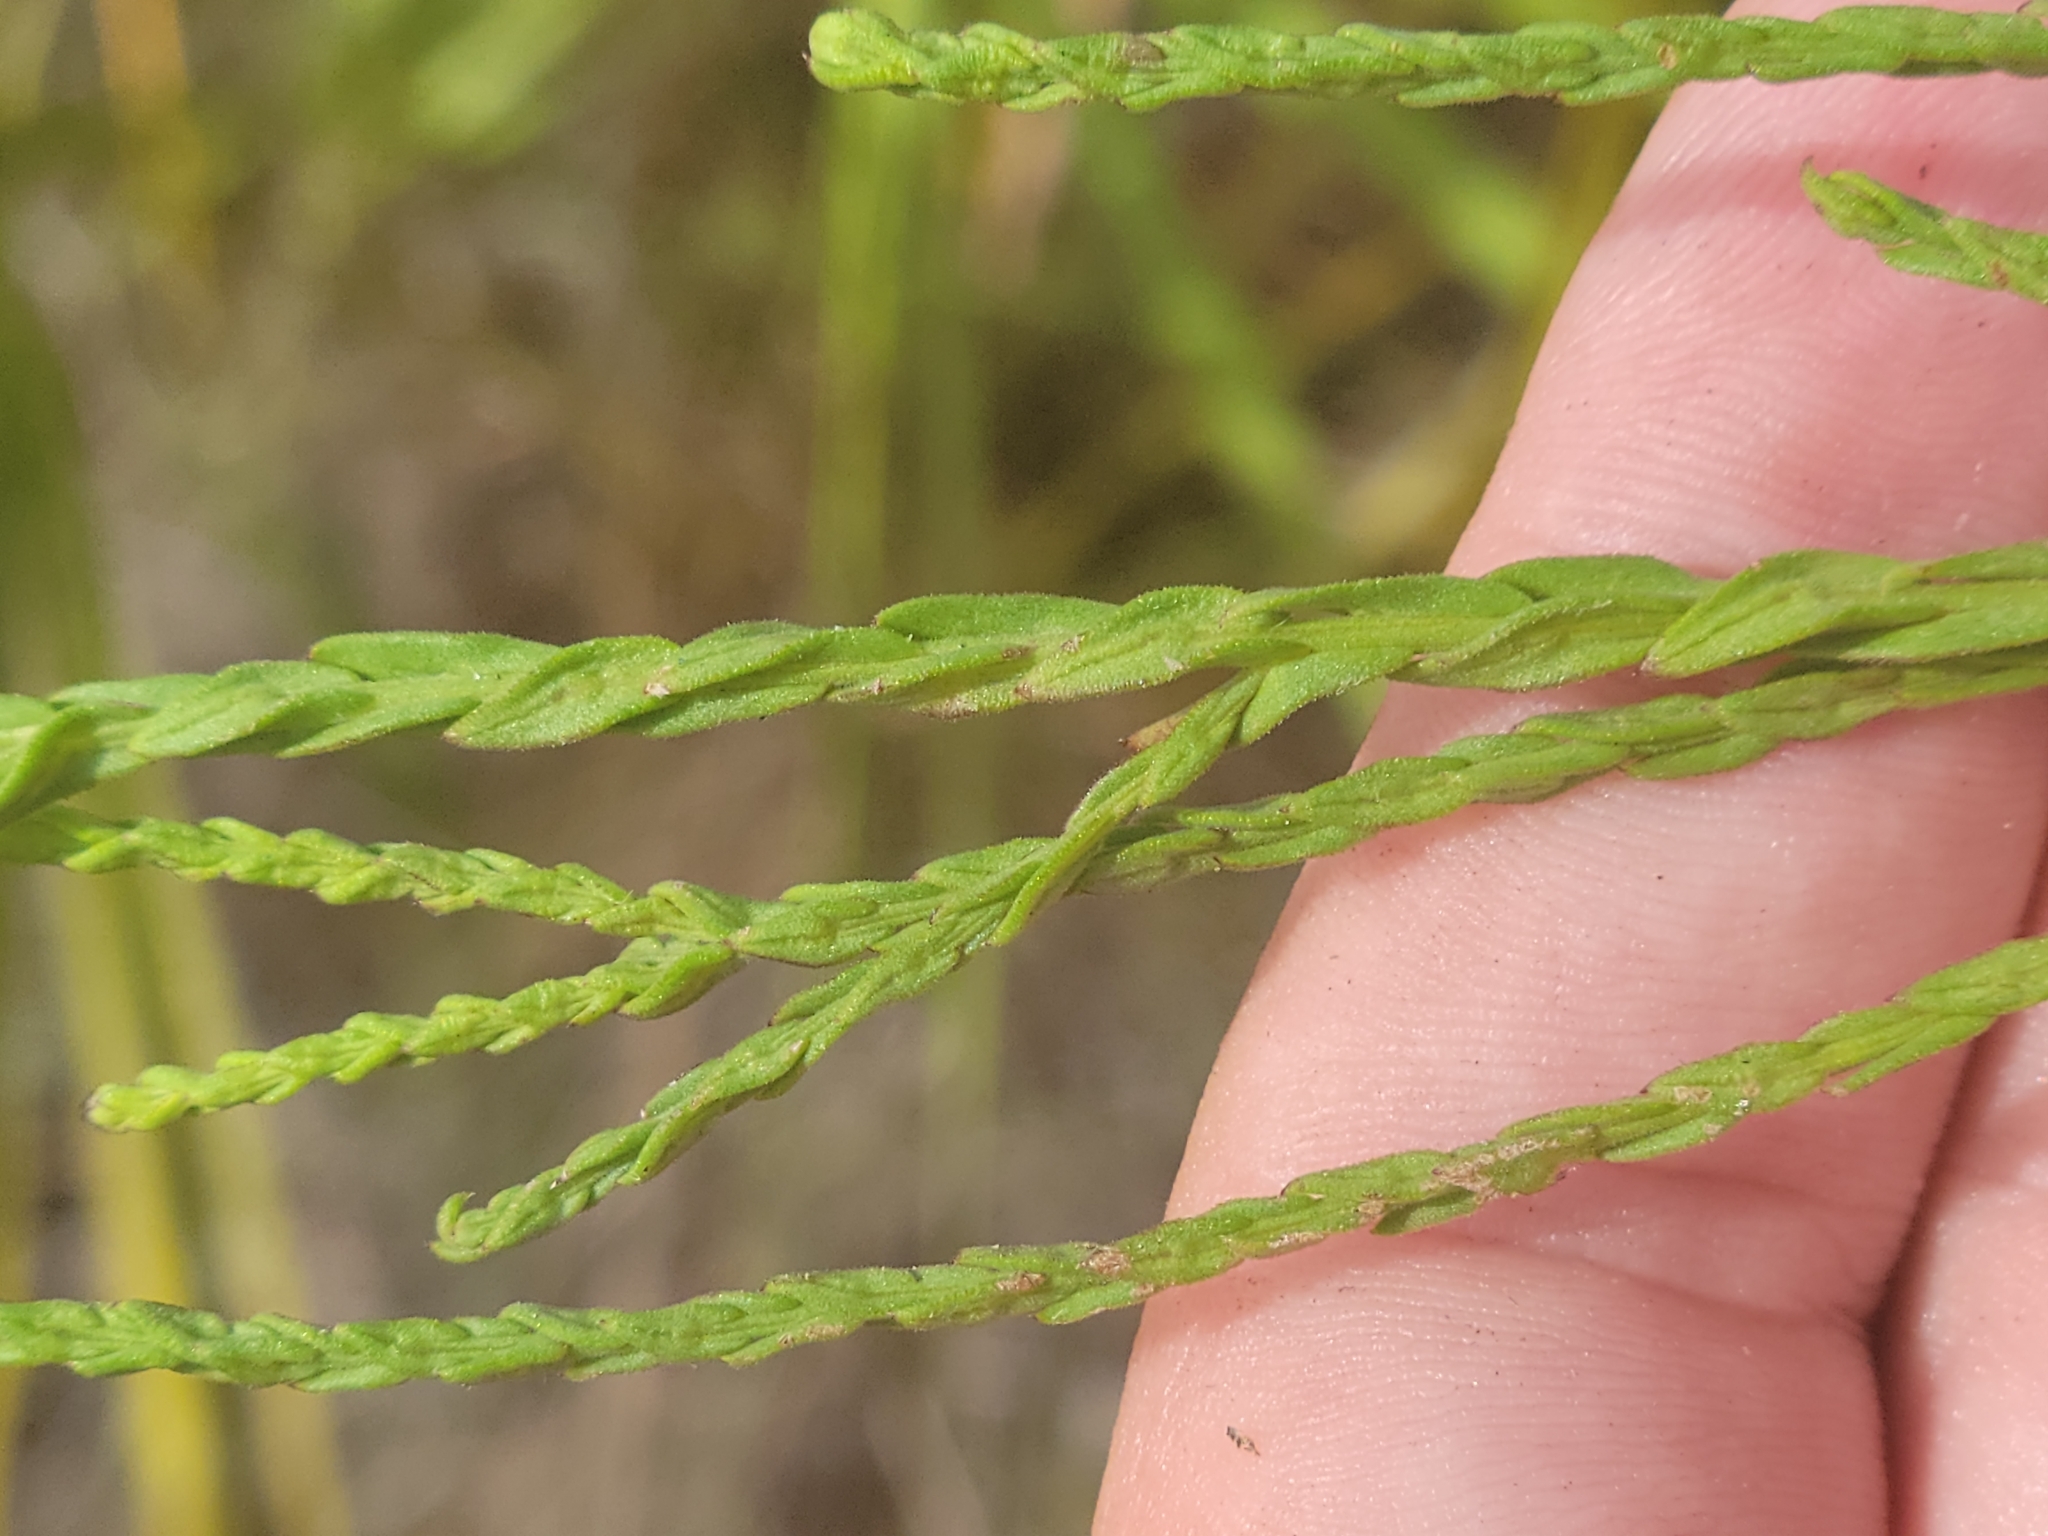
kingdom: Plantae
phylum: Tracheophyta
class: Magnoliopsida
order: Asterales
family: Asteraceae
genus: Symphyotrichum
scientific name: Symphyotrichum adnatum
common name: Scale-leaf aster
